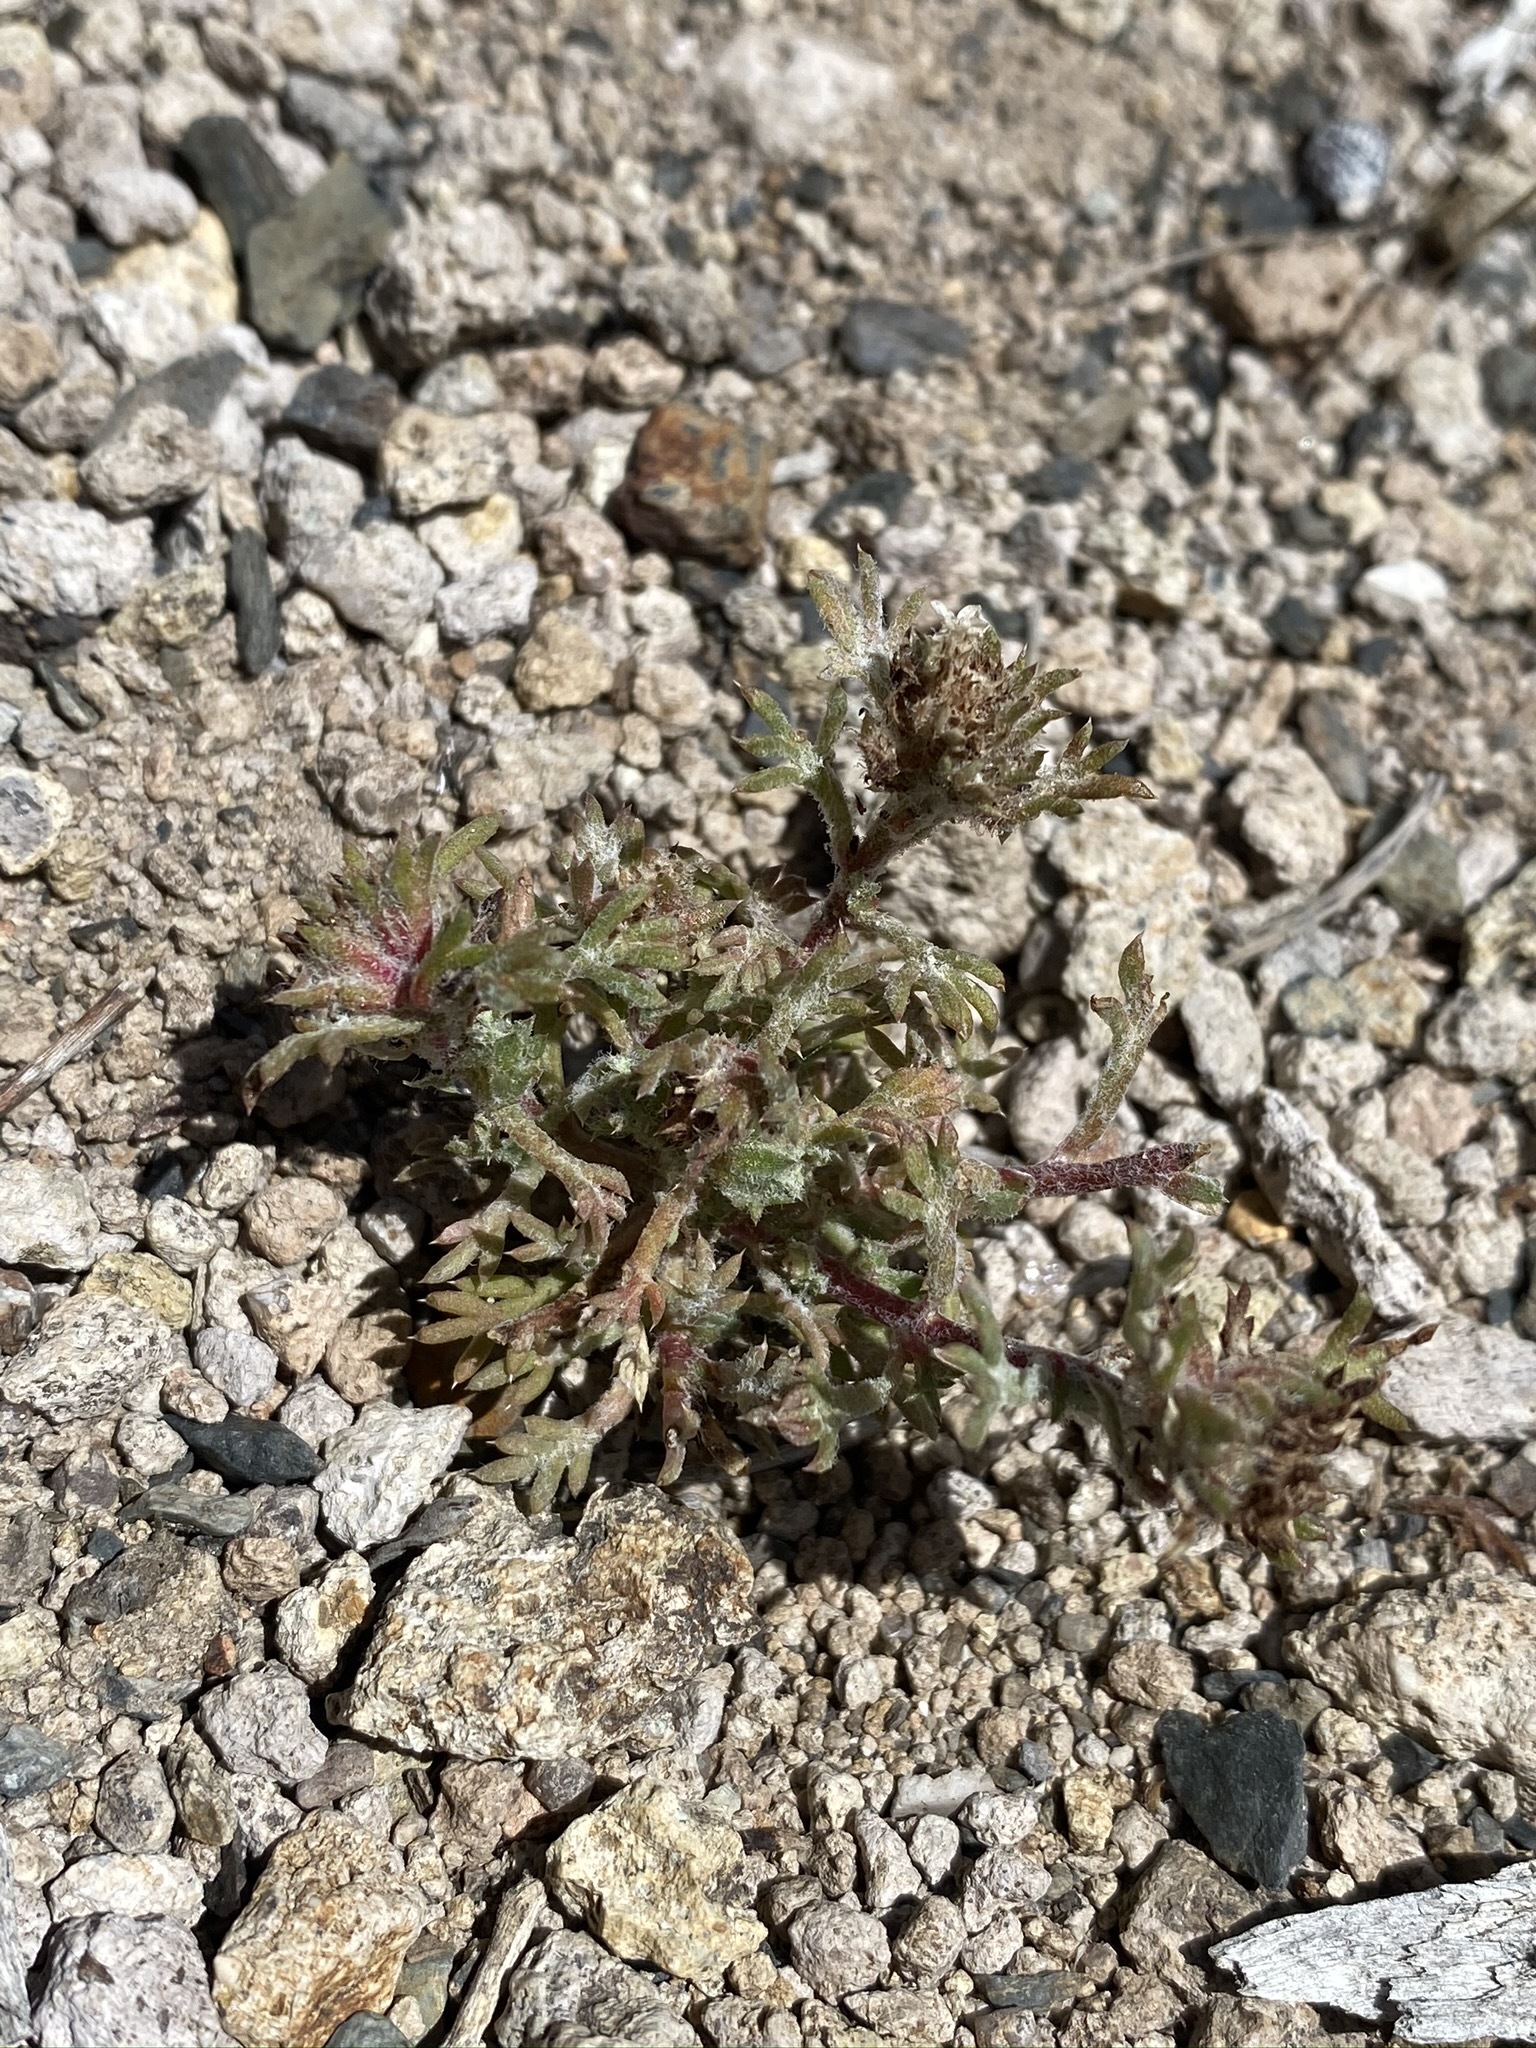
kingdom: Plantae
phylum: Tracheophyta
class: Magnoliopsida
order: Ericales
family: Polemoniaceae
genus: Ipomopsis
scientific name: Ipomopsis congesta
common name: Ball-head gilia
